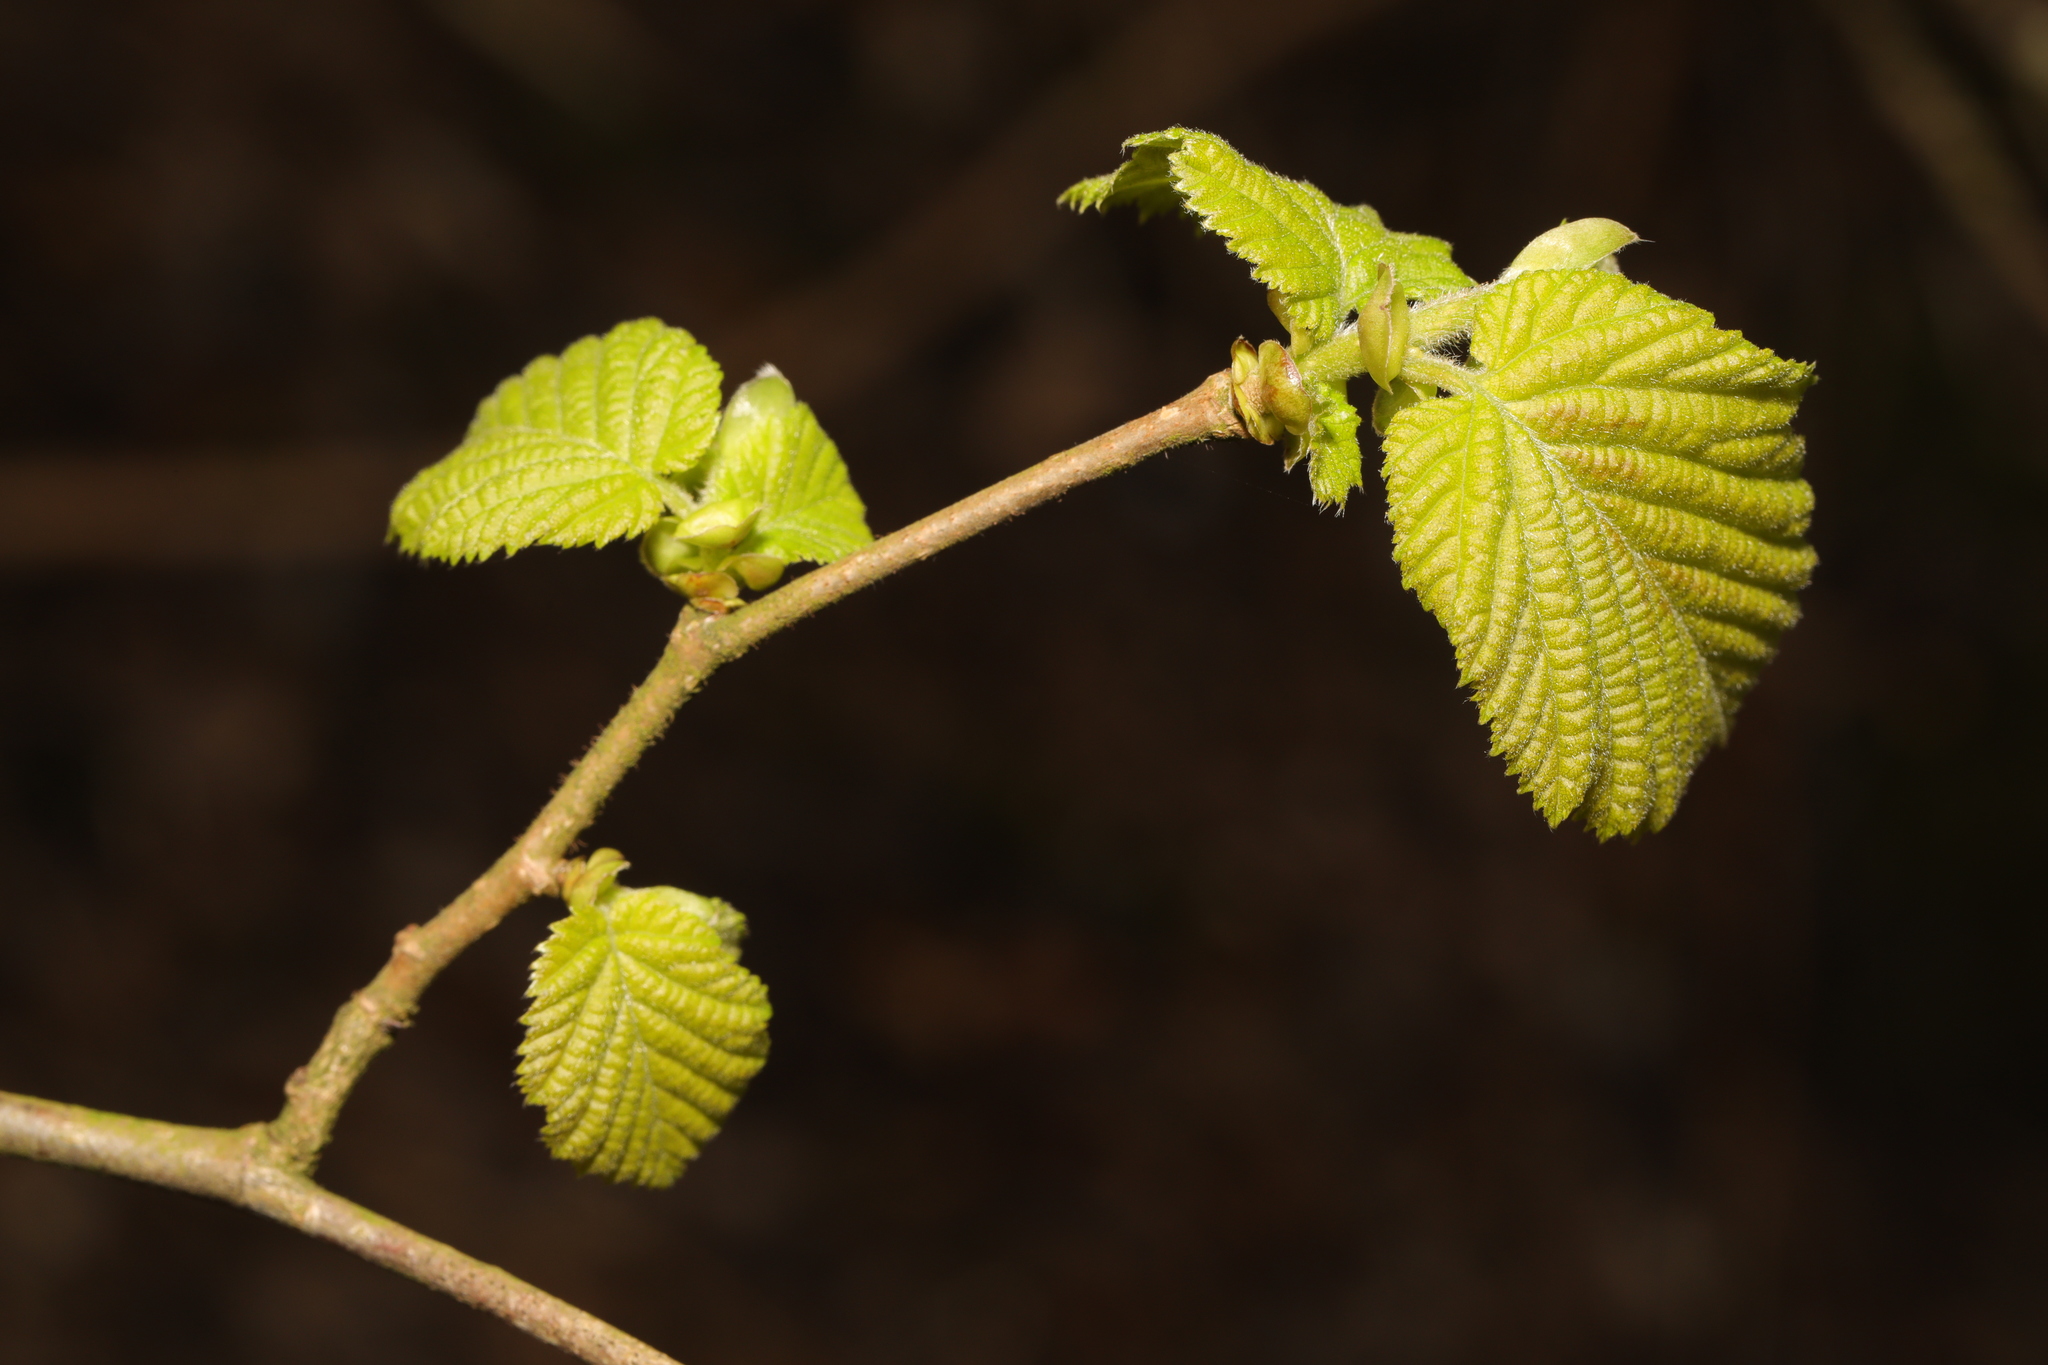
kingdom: Plantae
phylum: Tracheophyta
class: Magnoliopsida
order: Fagales
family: Betulaceae
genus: Corylus
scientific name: Corylus avellana
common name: European hazel
